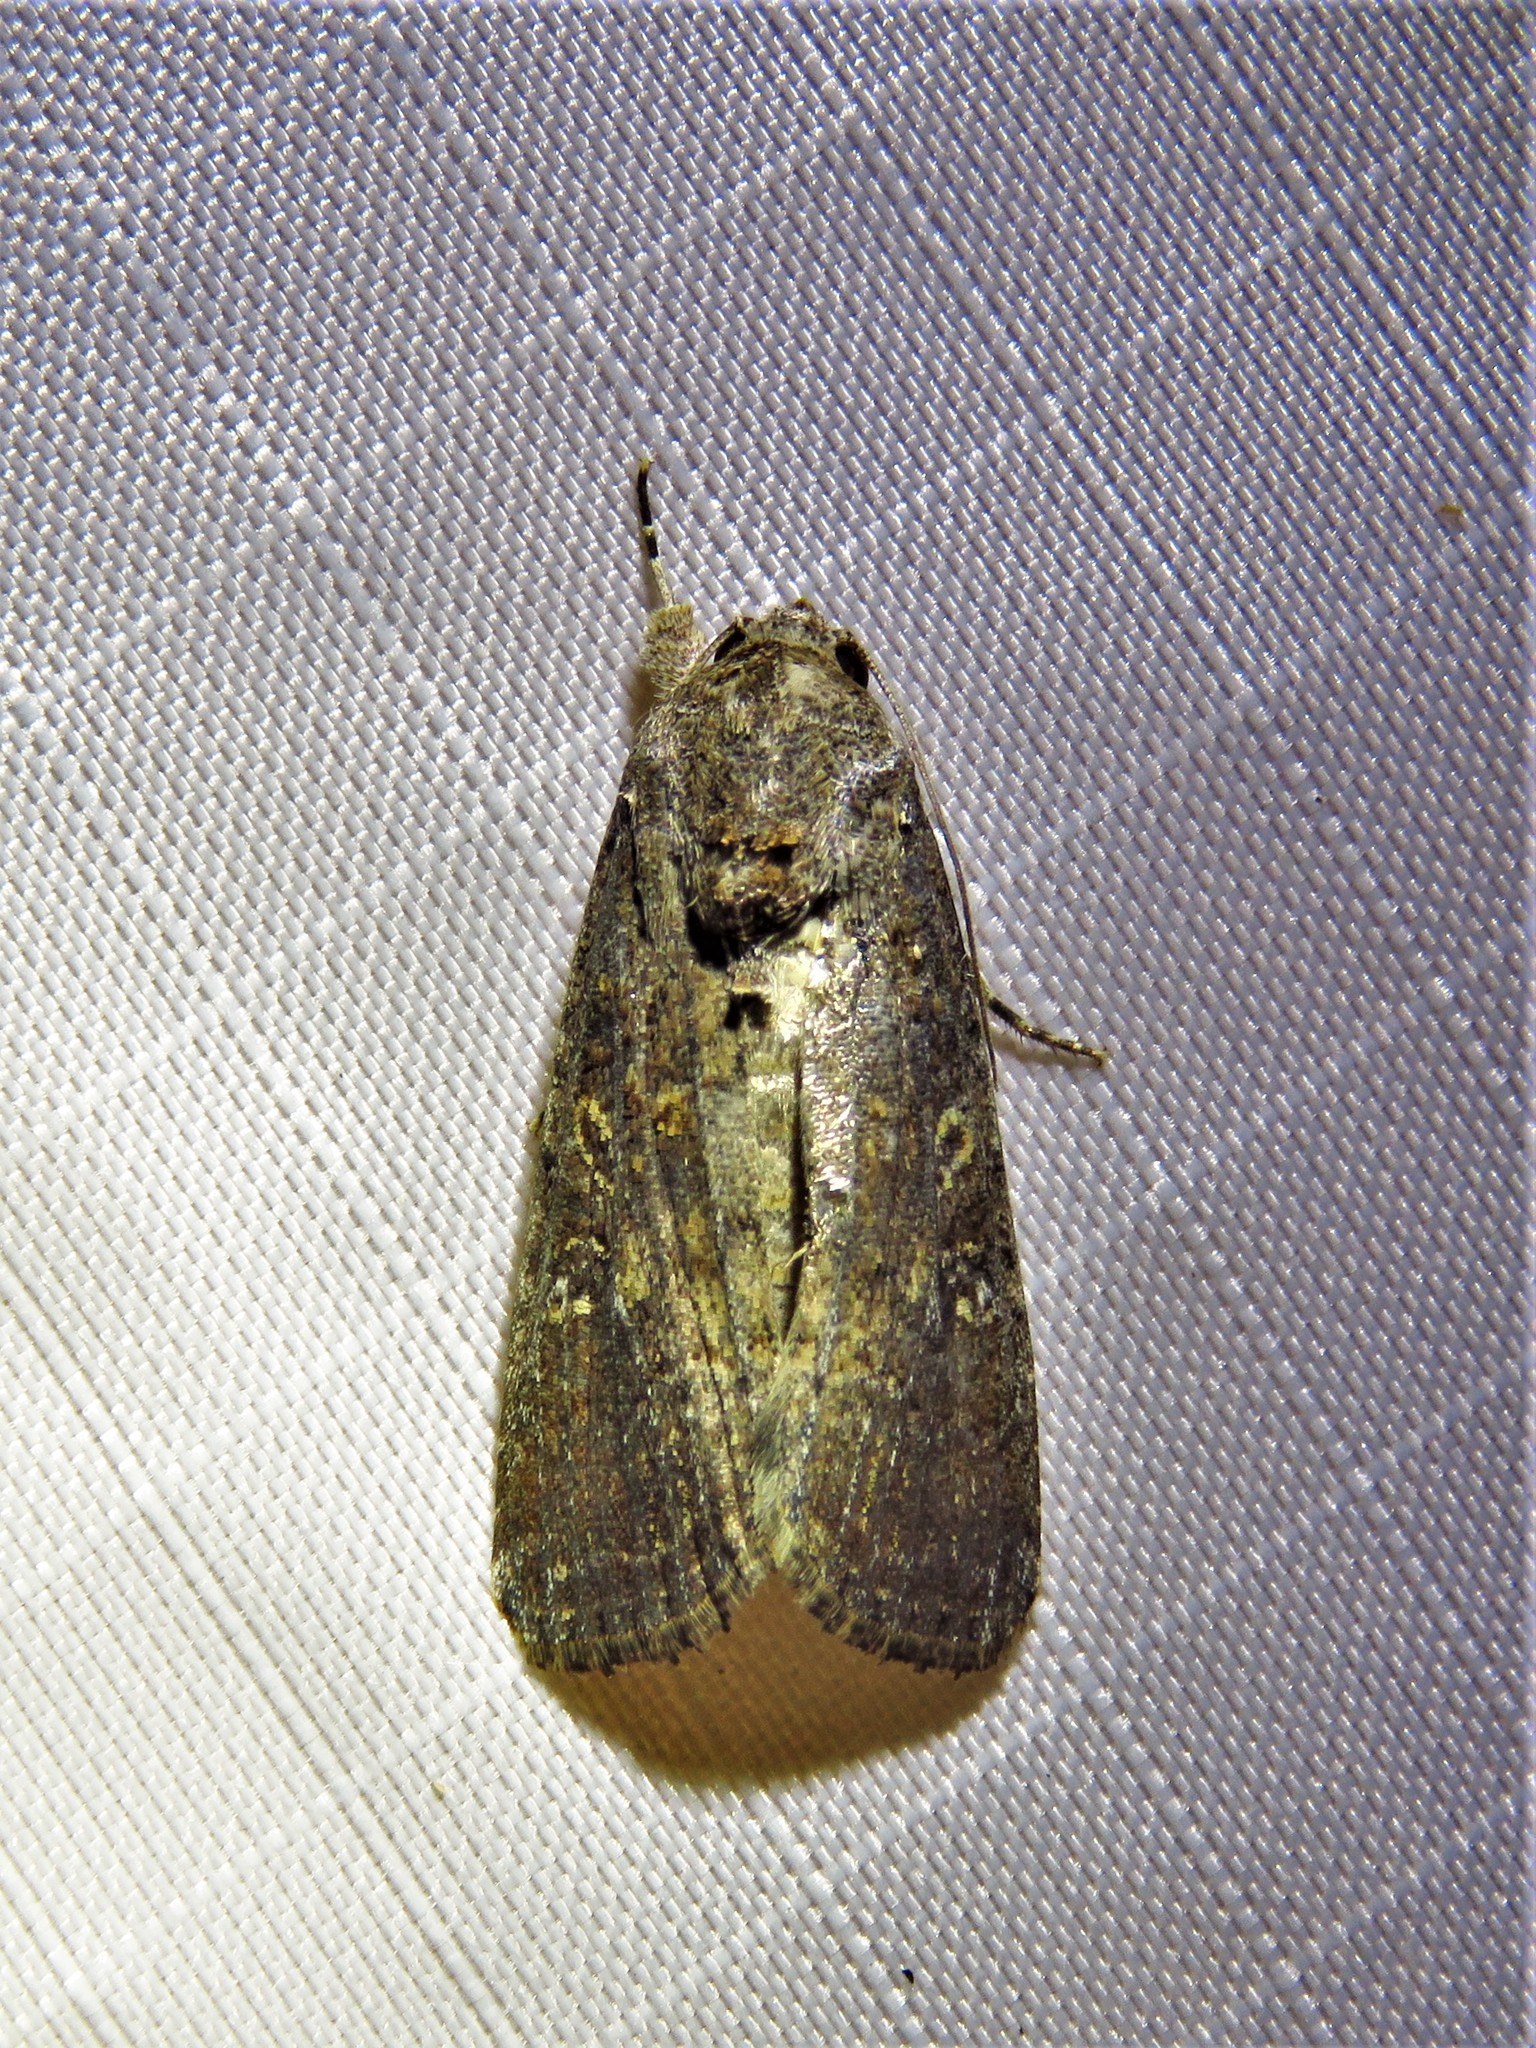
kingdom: Animalia
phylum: Arthropoda
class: Insecta
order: Lepidoptera
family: Noctuidae
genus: Spodoptera
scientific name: Spodoptera frugiperda
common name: Fall armyworm
